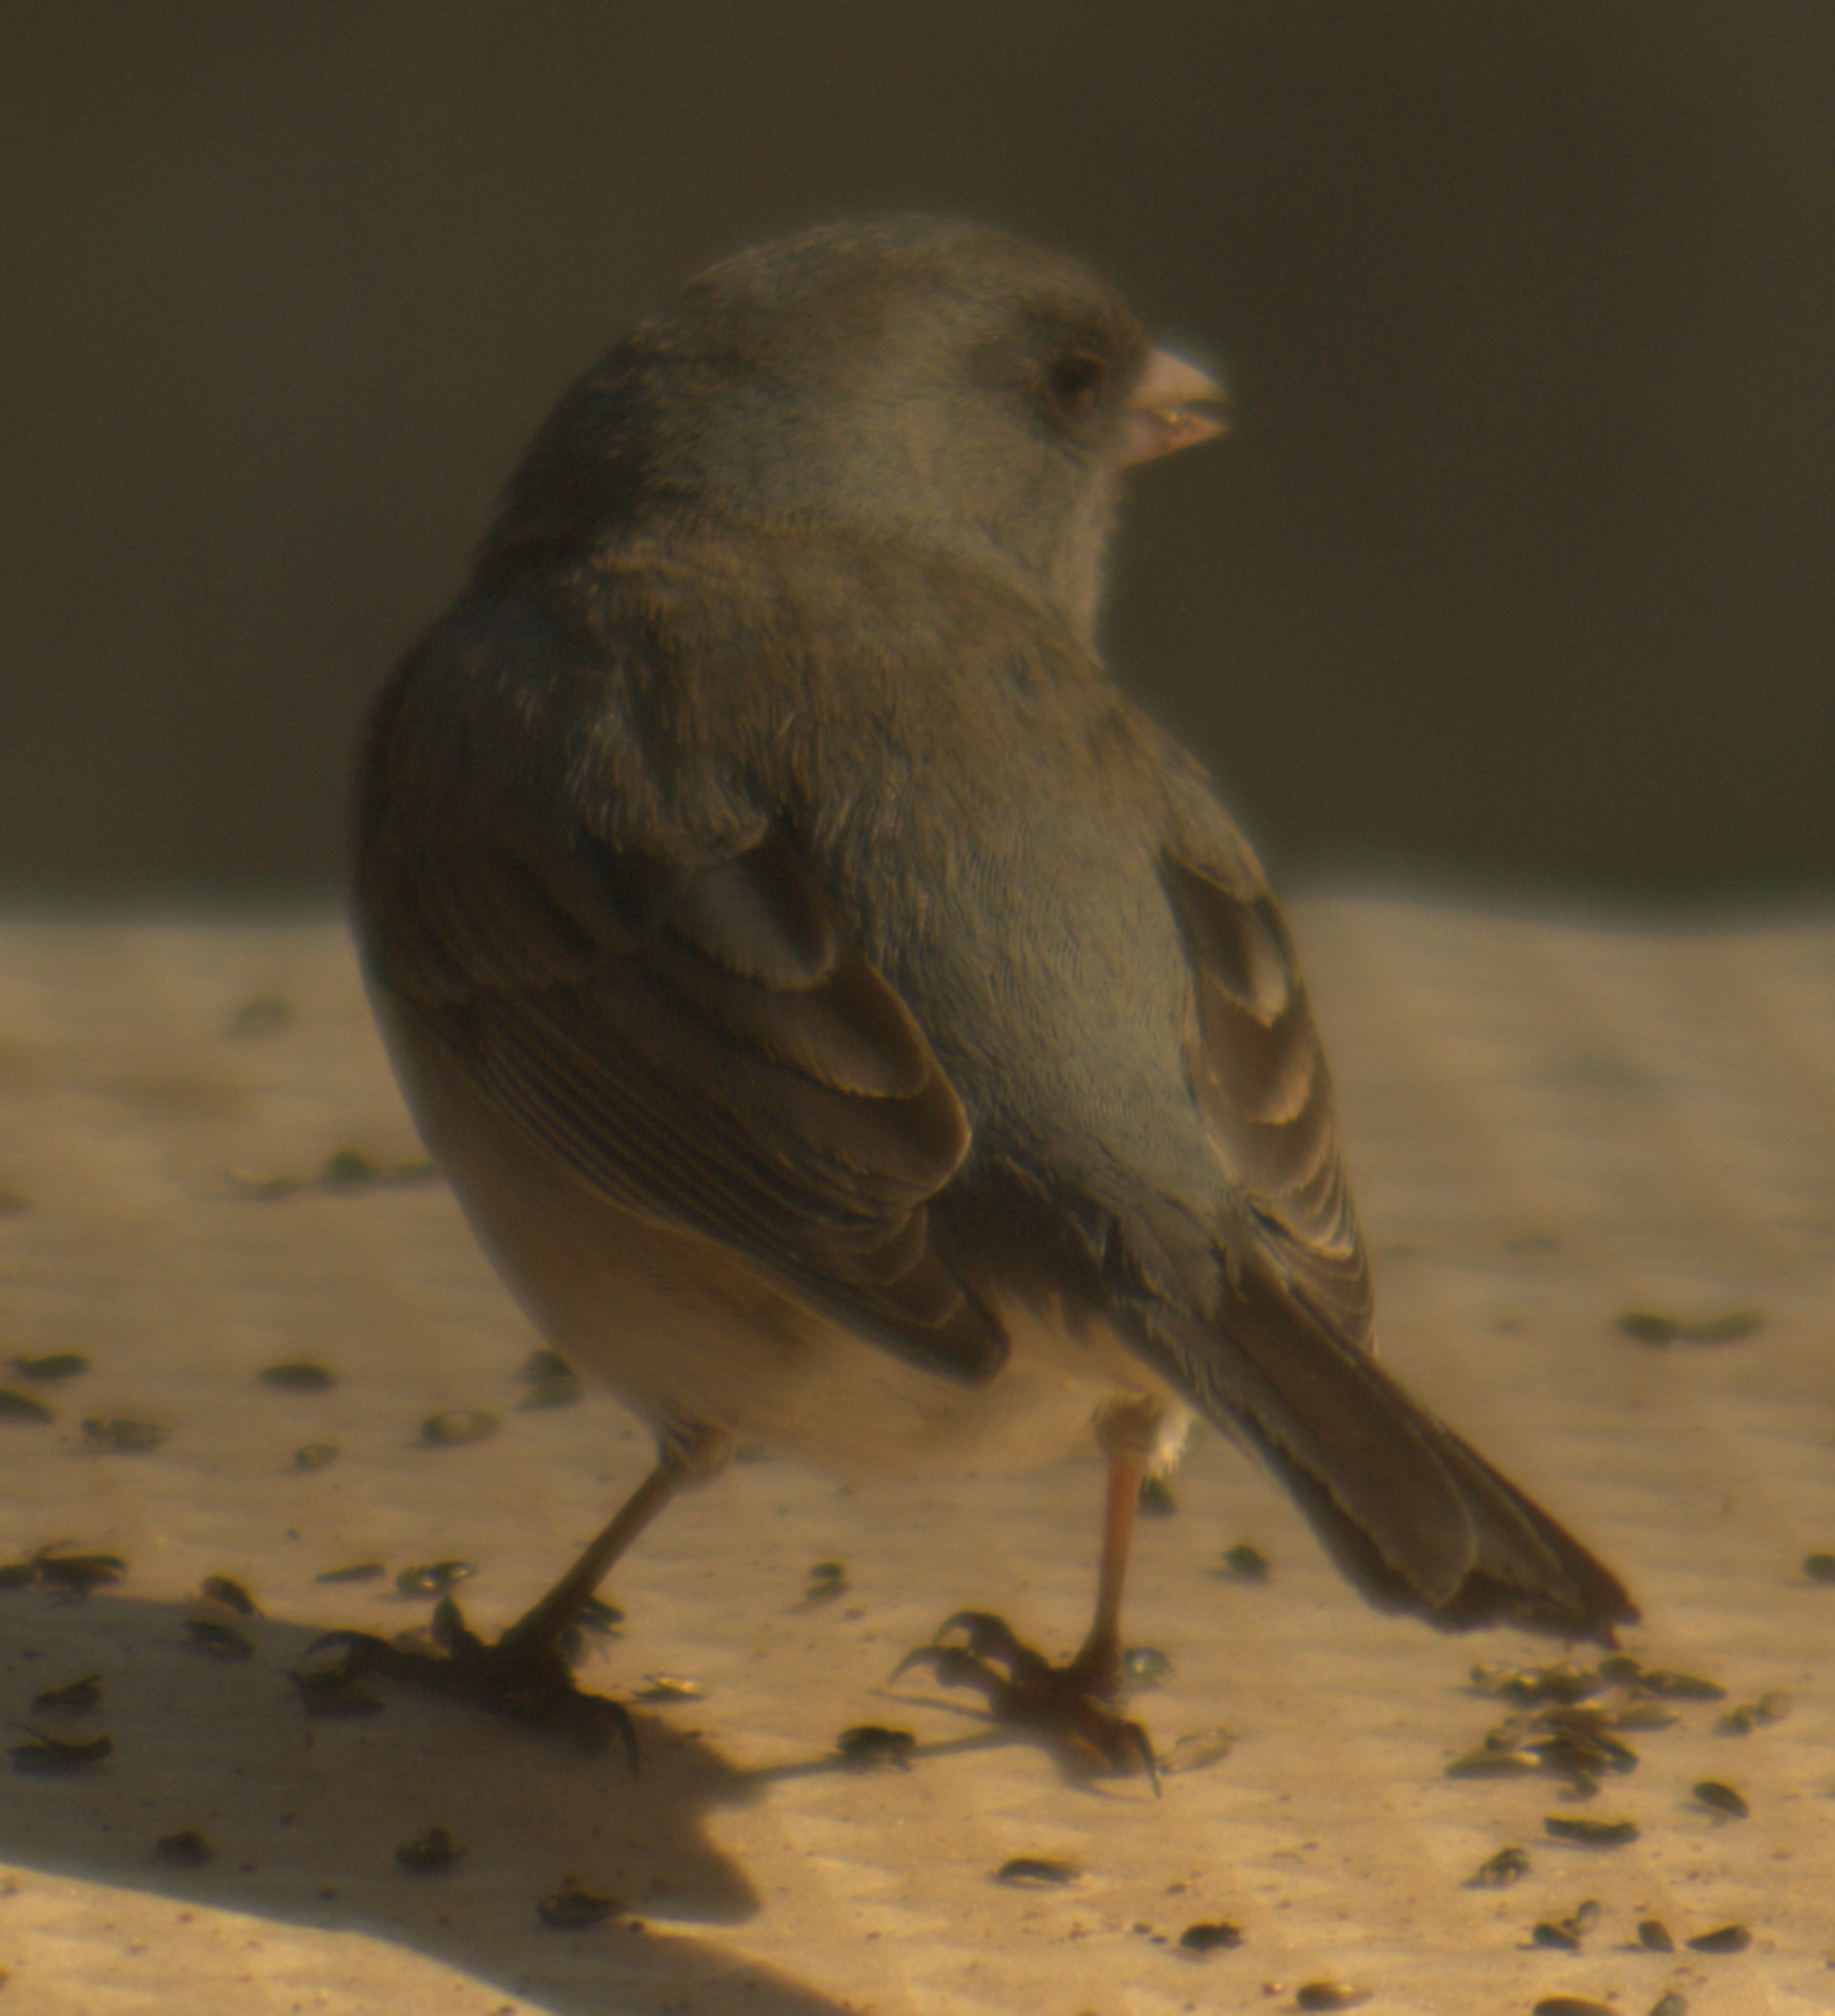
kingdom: Animalia
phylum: Chordata
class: Aves
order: Passeriformes
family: Passerellidae
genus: Junco
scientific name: Junco hyemalis
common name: Dark-eyed junco
